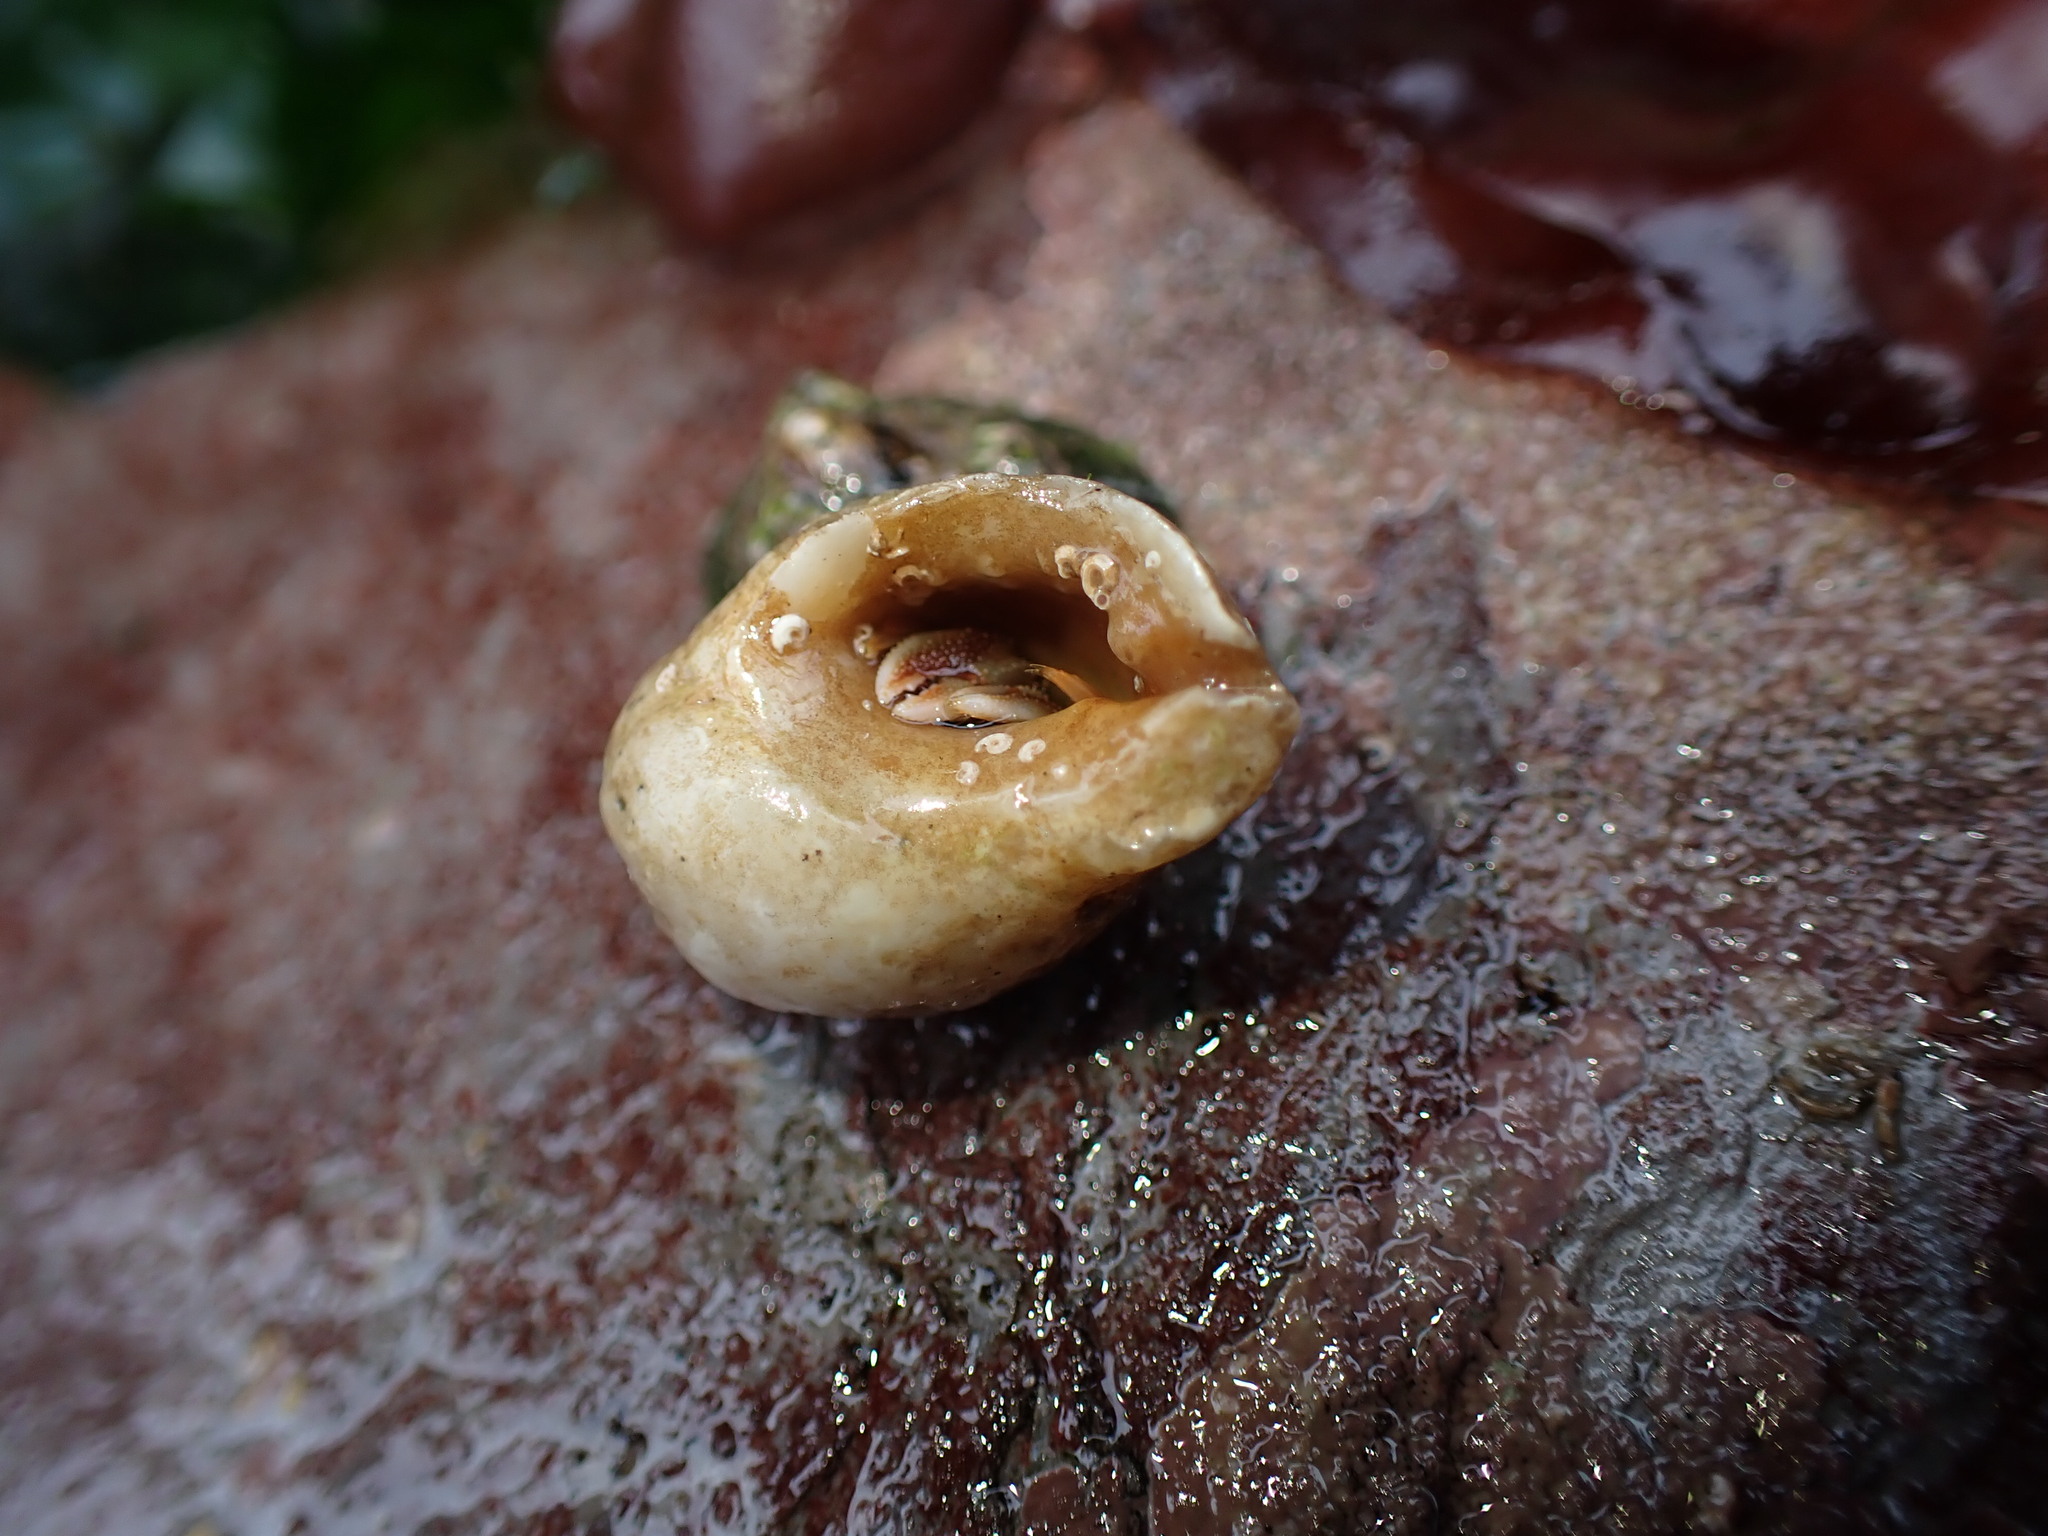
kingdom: Animalia
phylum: Arthropoda
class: Malacostraca
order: Decapoda
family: Paguridae
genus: Pagurus
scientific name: Pagurus bernhardus
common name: Hermit crab
